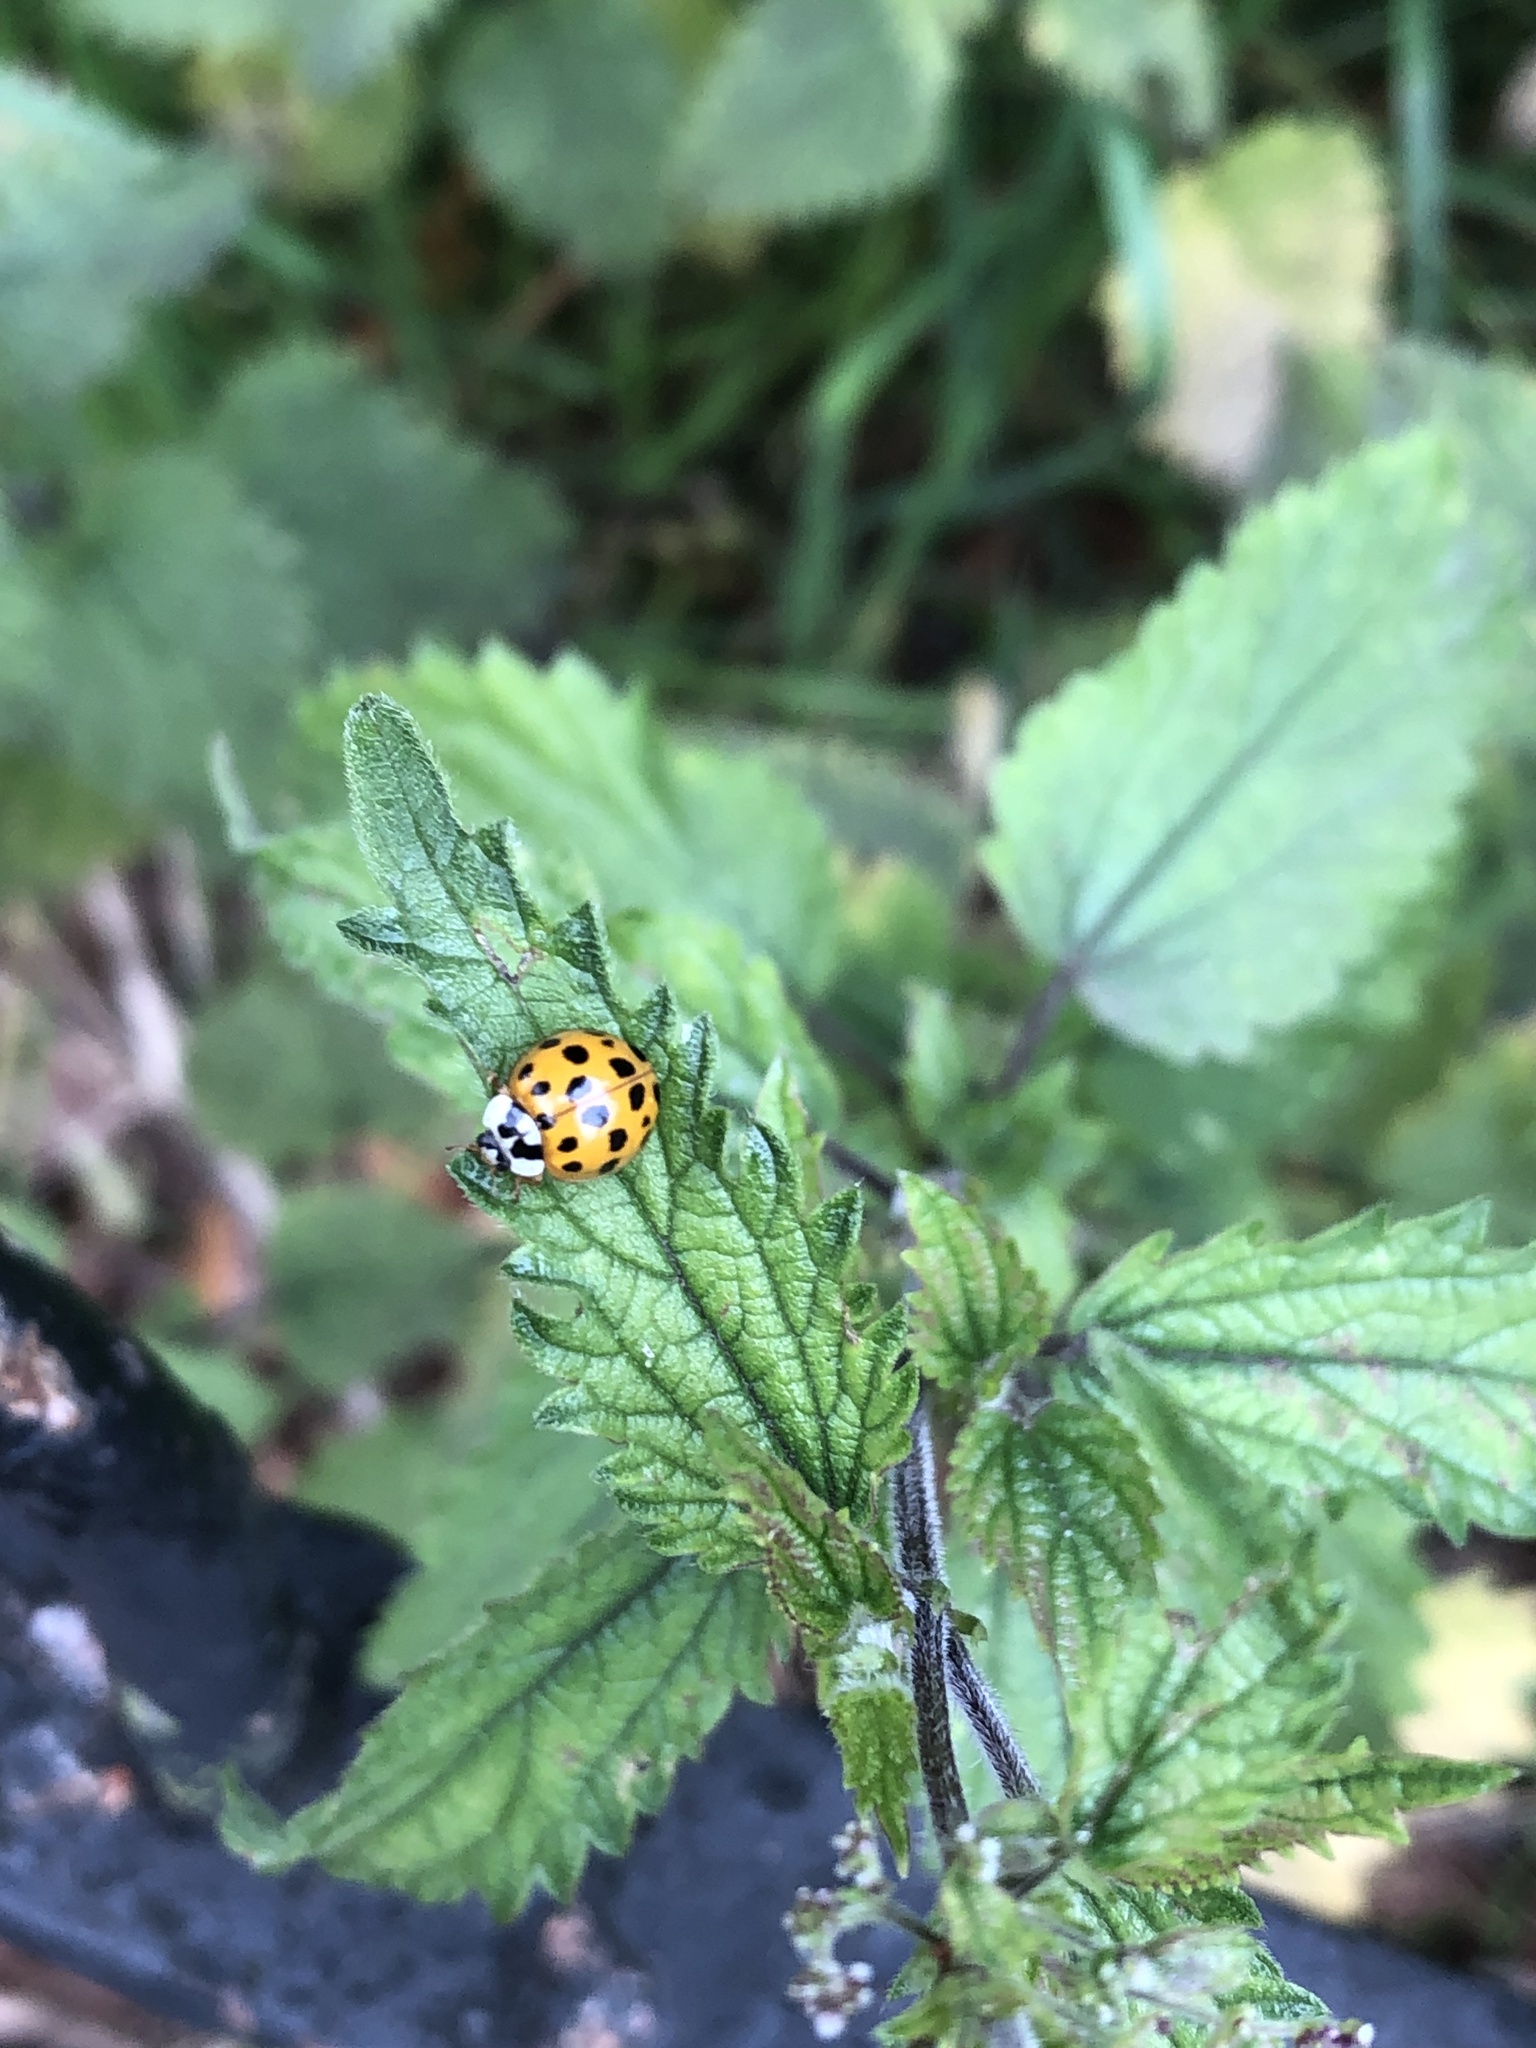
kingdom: Animalia
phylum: Arthropoda
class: Insecta
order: Coleoptera
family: Coccinellidae
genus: Harmonia
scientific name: Harmonia axyridis
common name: Harlequin ladybird
